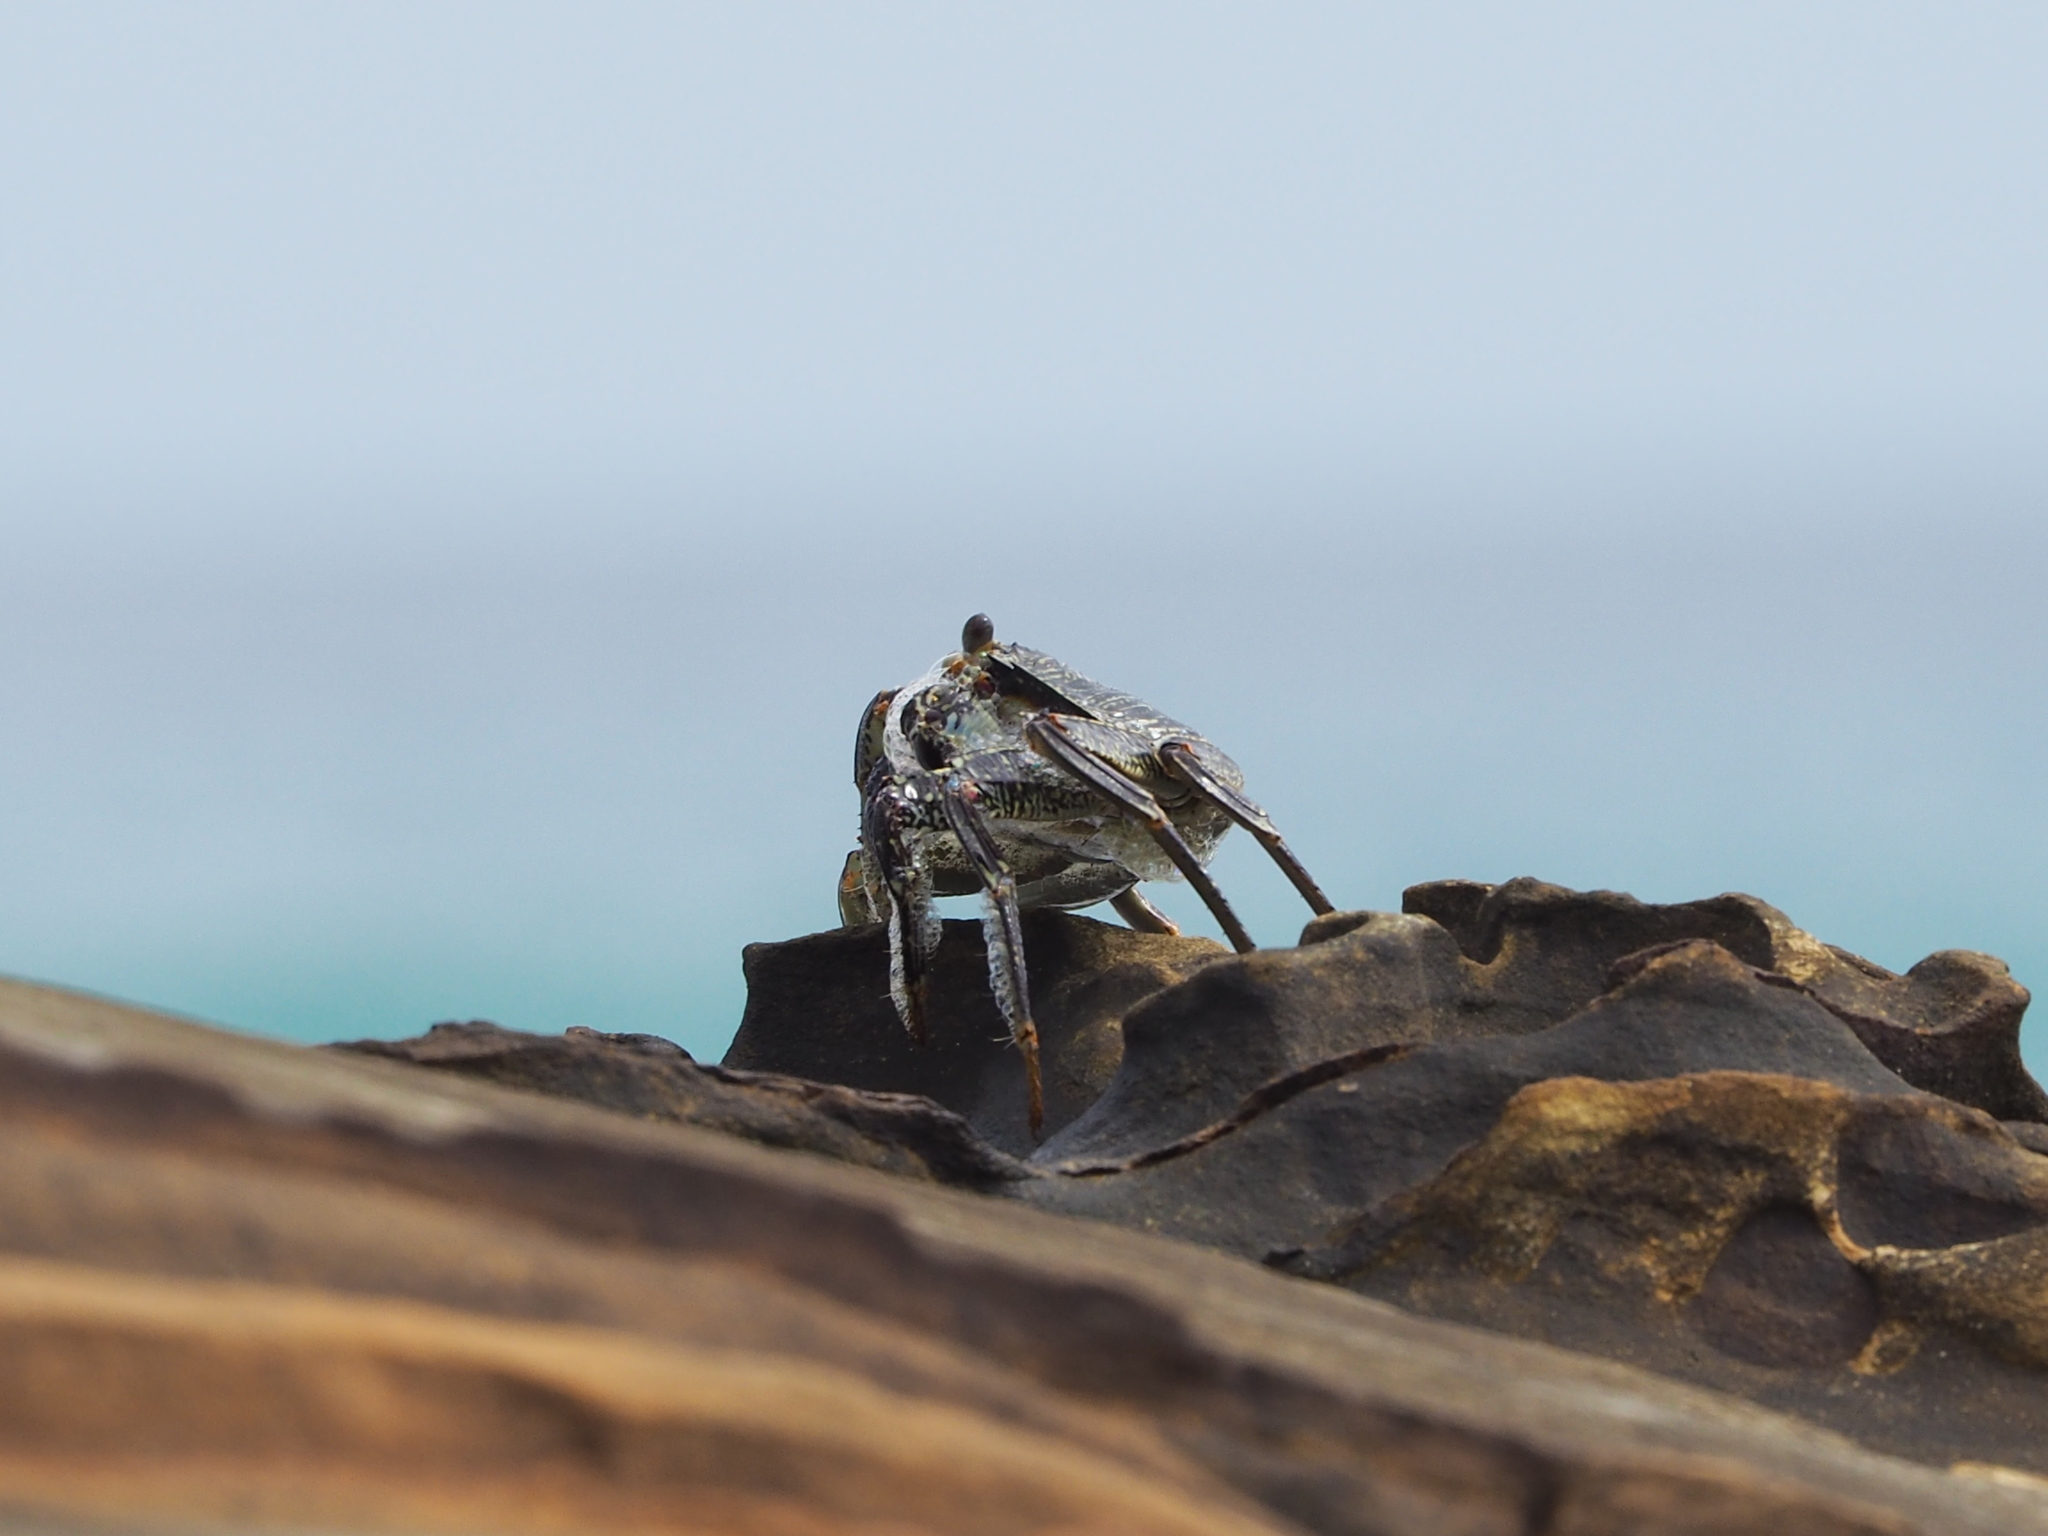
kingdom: Animalia
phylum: Arthropoda
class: Malacostraca
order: Decapoda
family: Grapsidae
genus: Grapsus
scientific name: Grapsus tenuicrustatus
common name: Natal lightfoot crab
